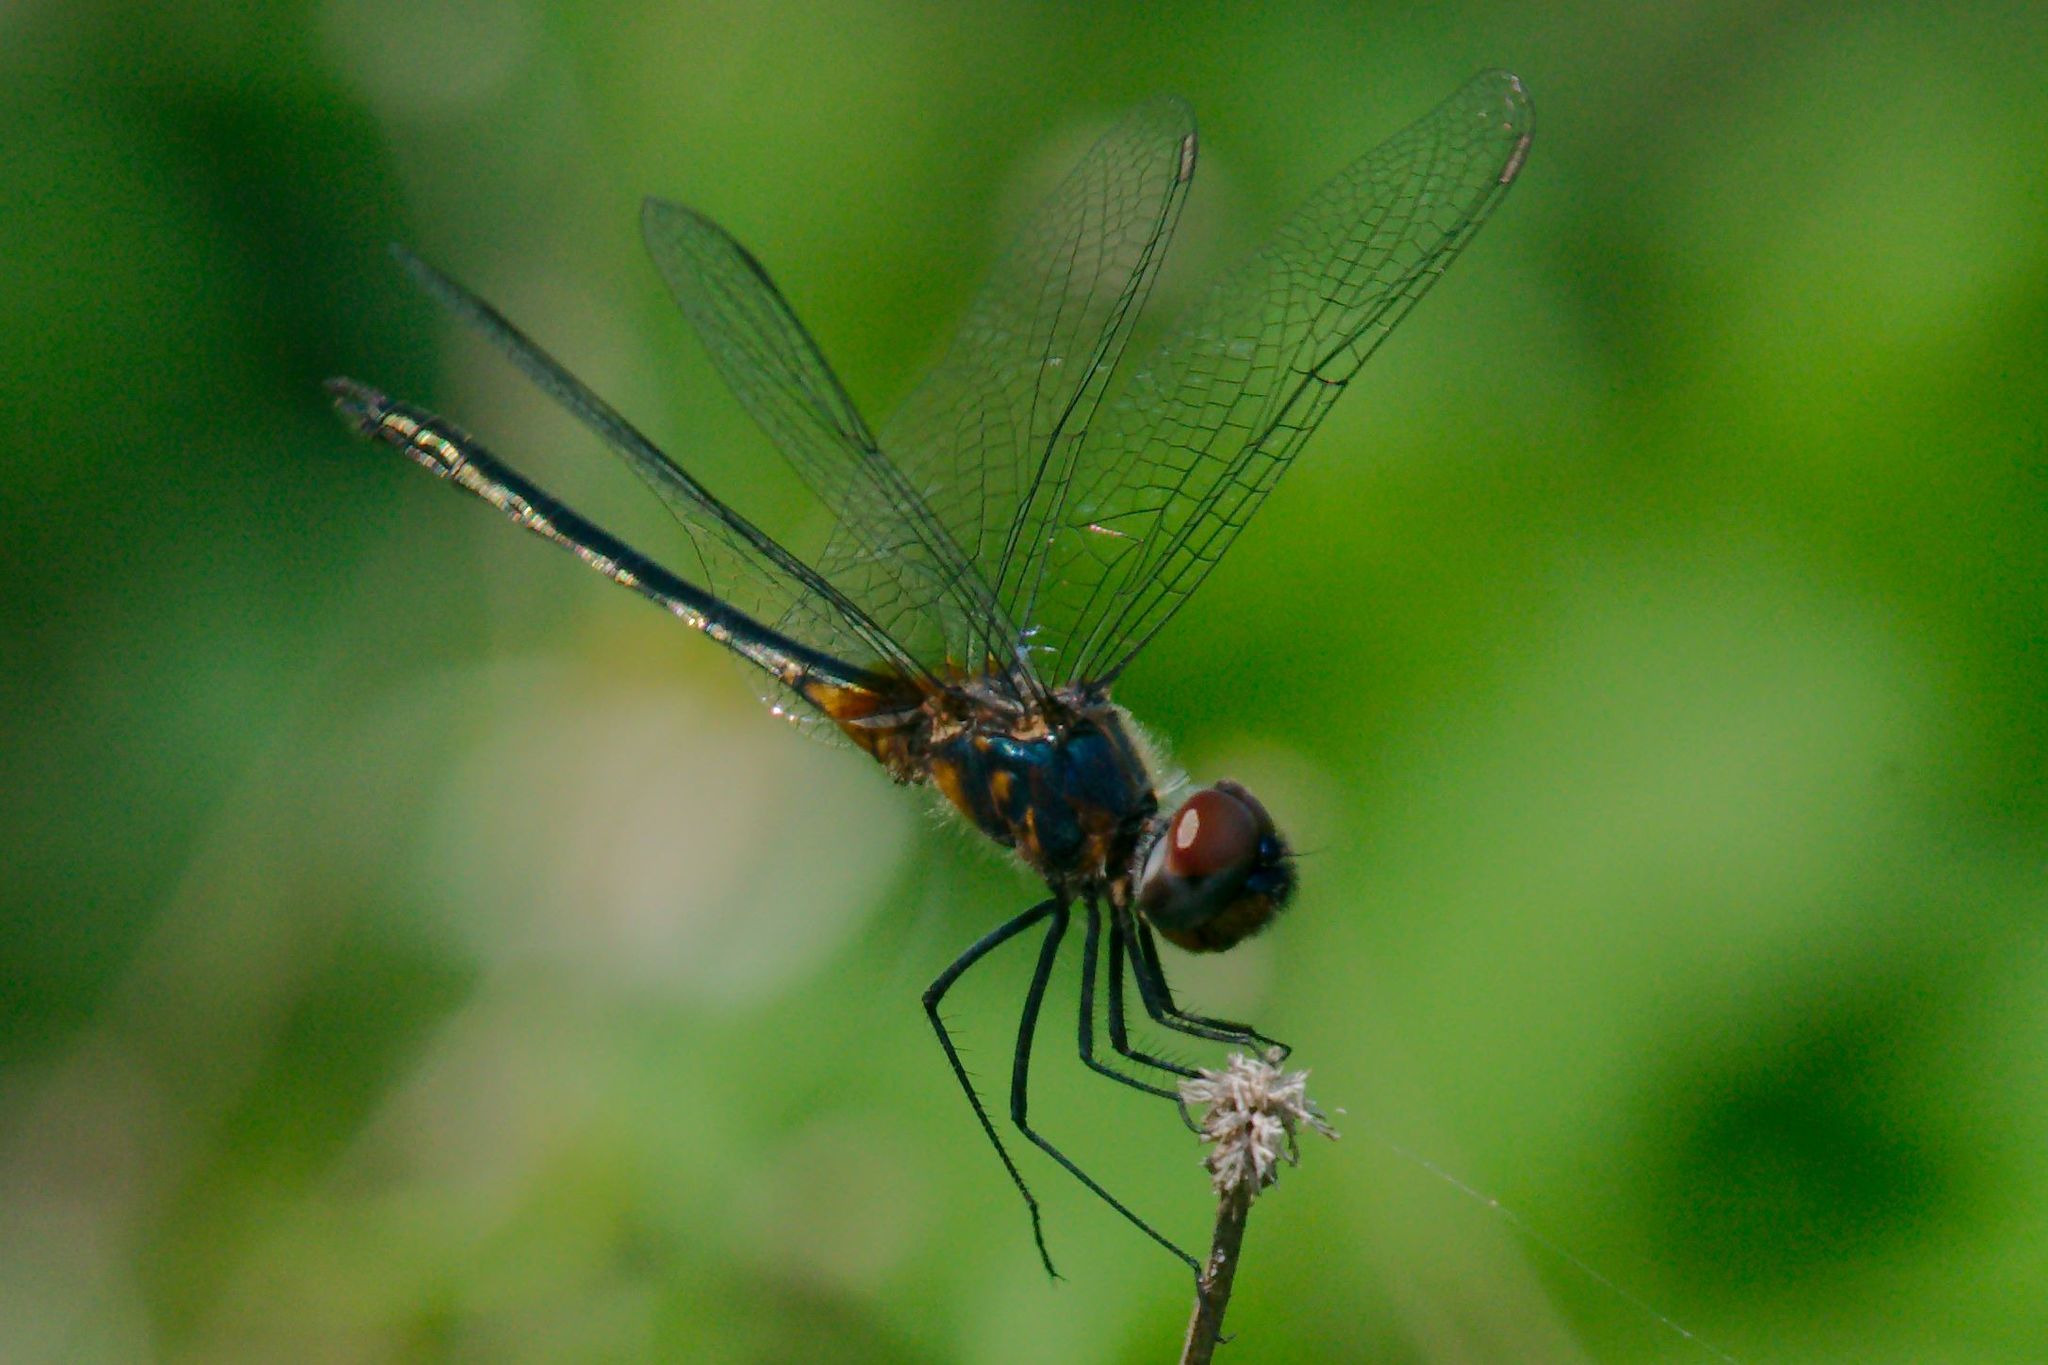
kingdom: Animalia
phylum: Arthropoda
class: Insecta
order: Odonata
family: Libellulidae
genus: Idiataphe
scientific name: Idiataphe cubensis
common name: Metallic pennant
